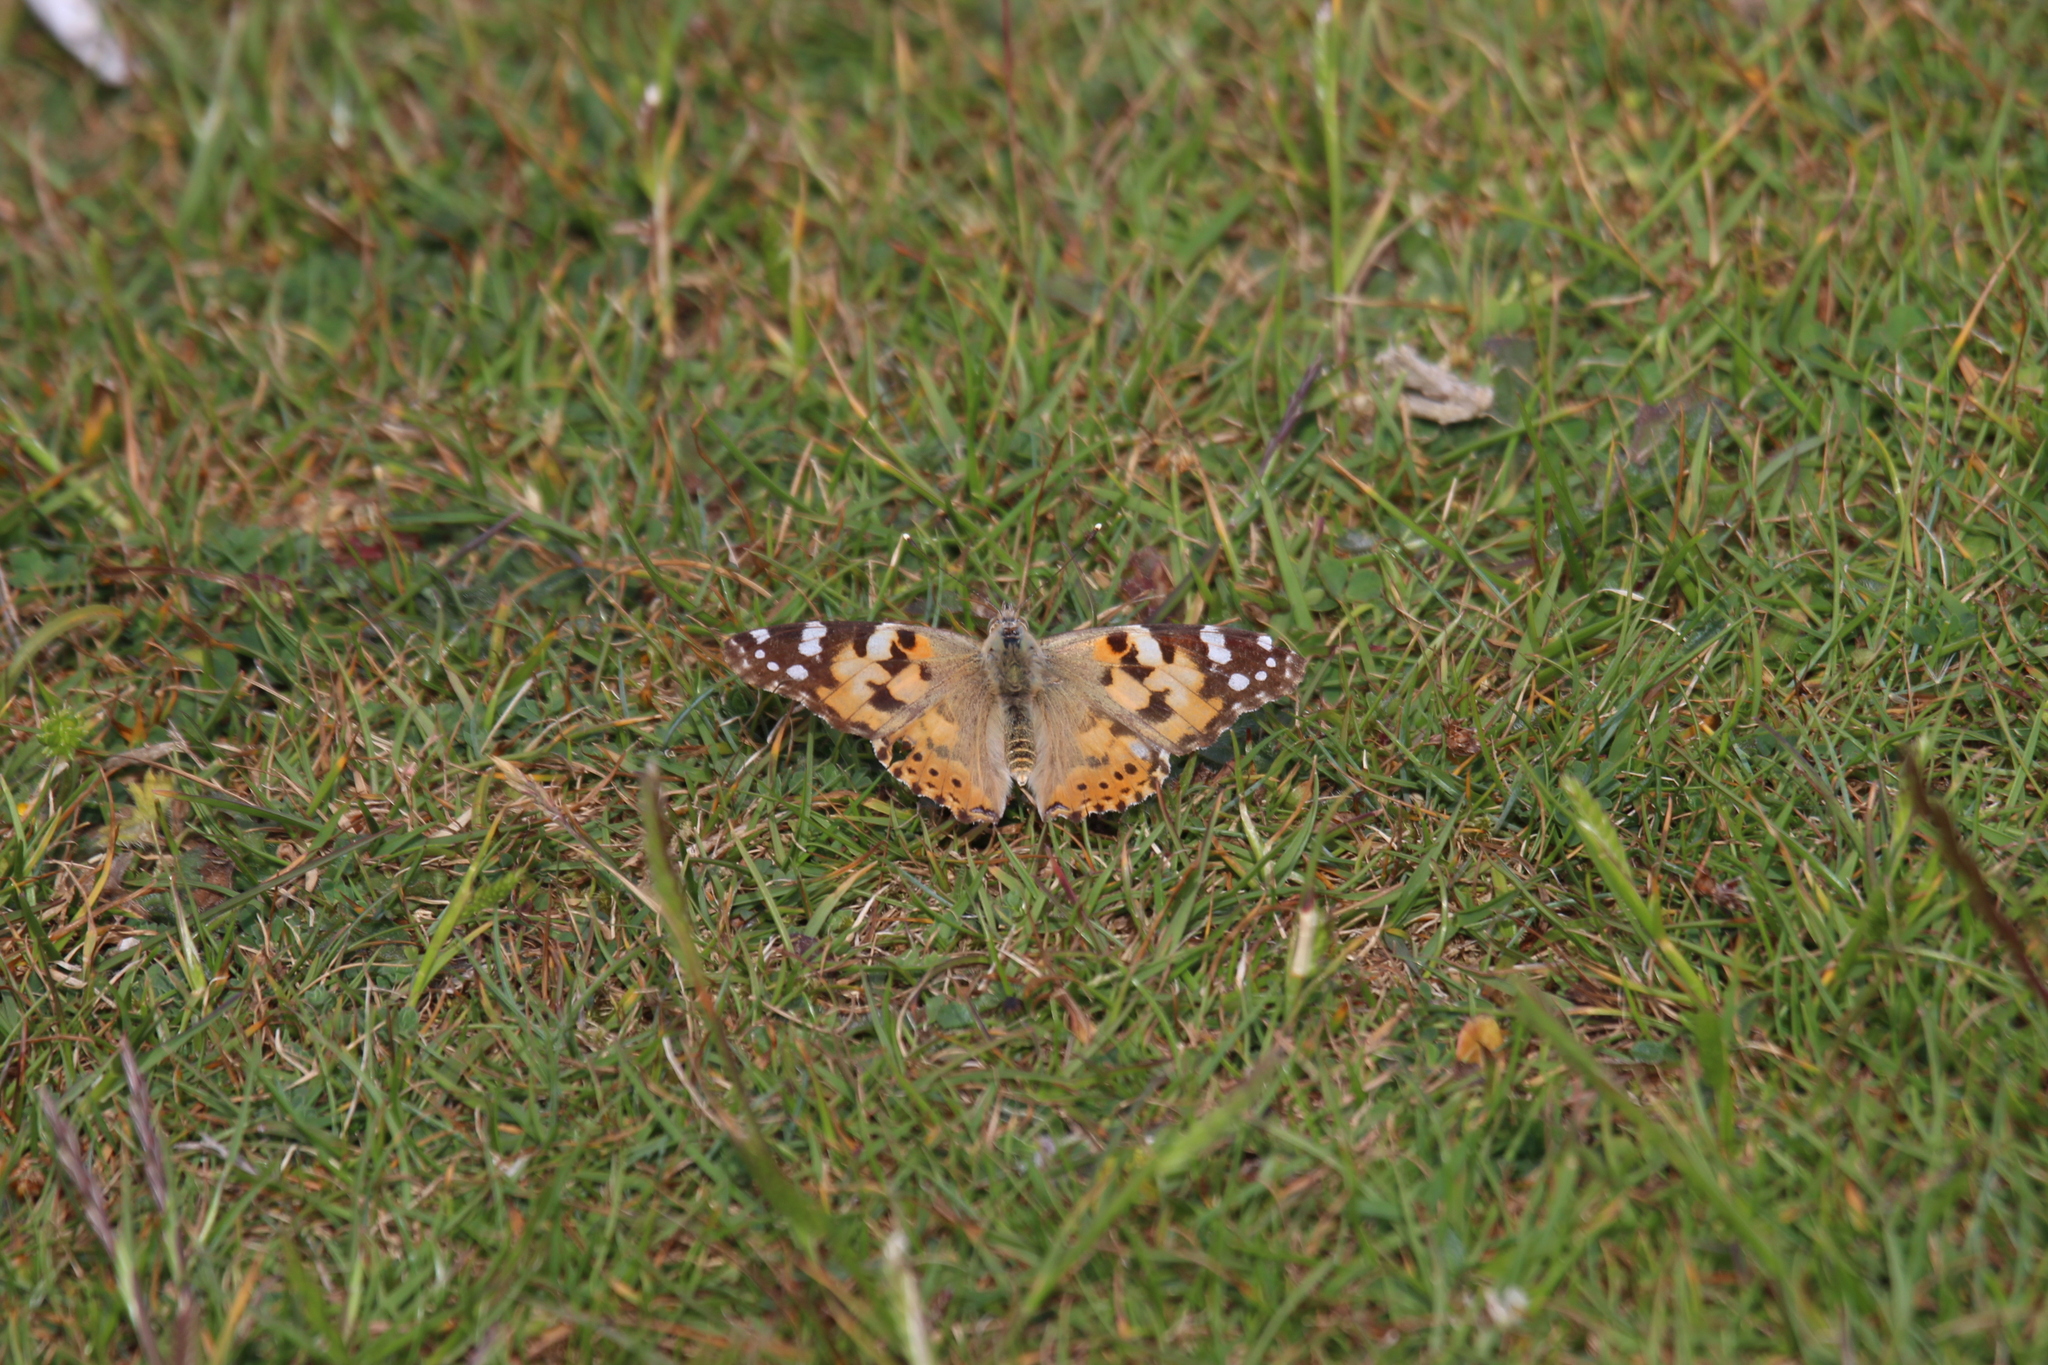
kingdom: Animalia
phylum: Arthropoda
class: Insecta
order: Lepidoptera
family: Nymphalidae
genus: Vanessa
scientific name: Vanessa cardui
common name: Painted lady
